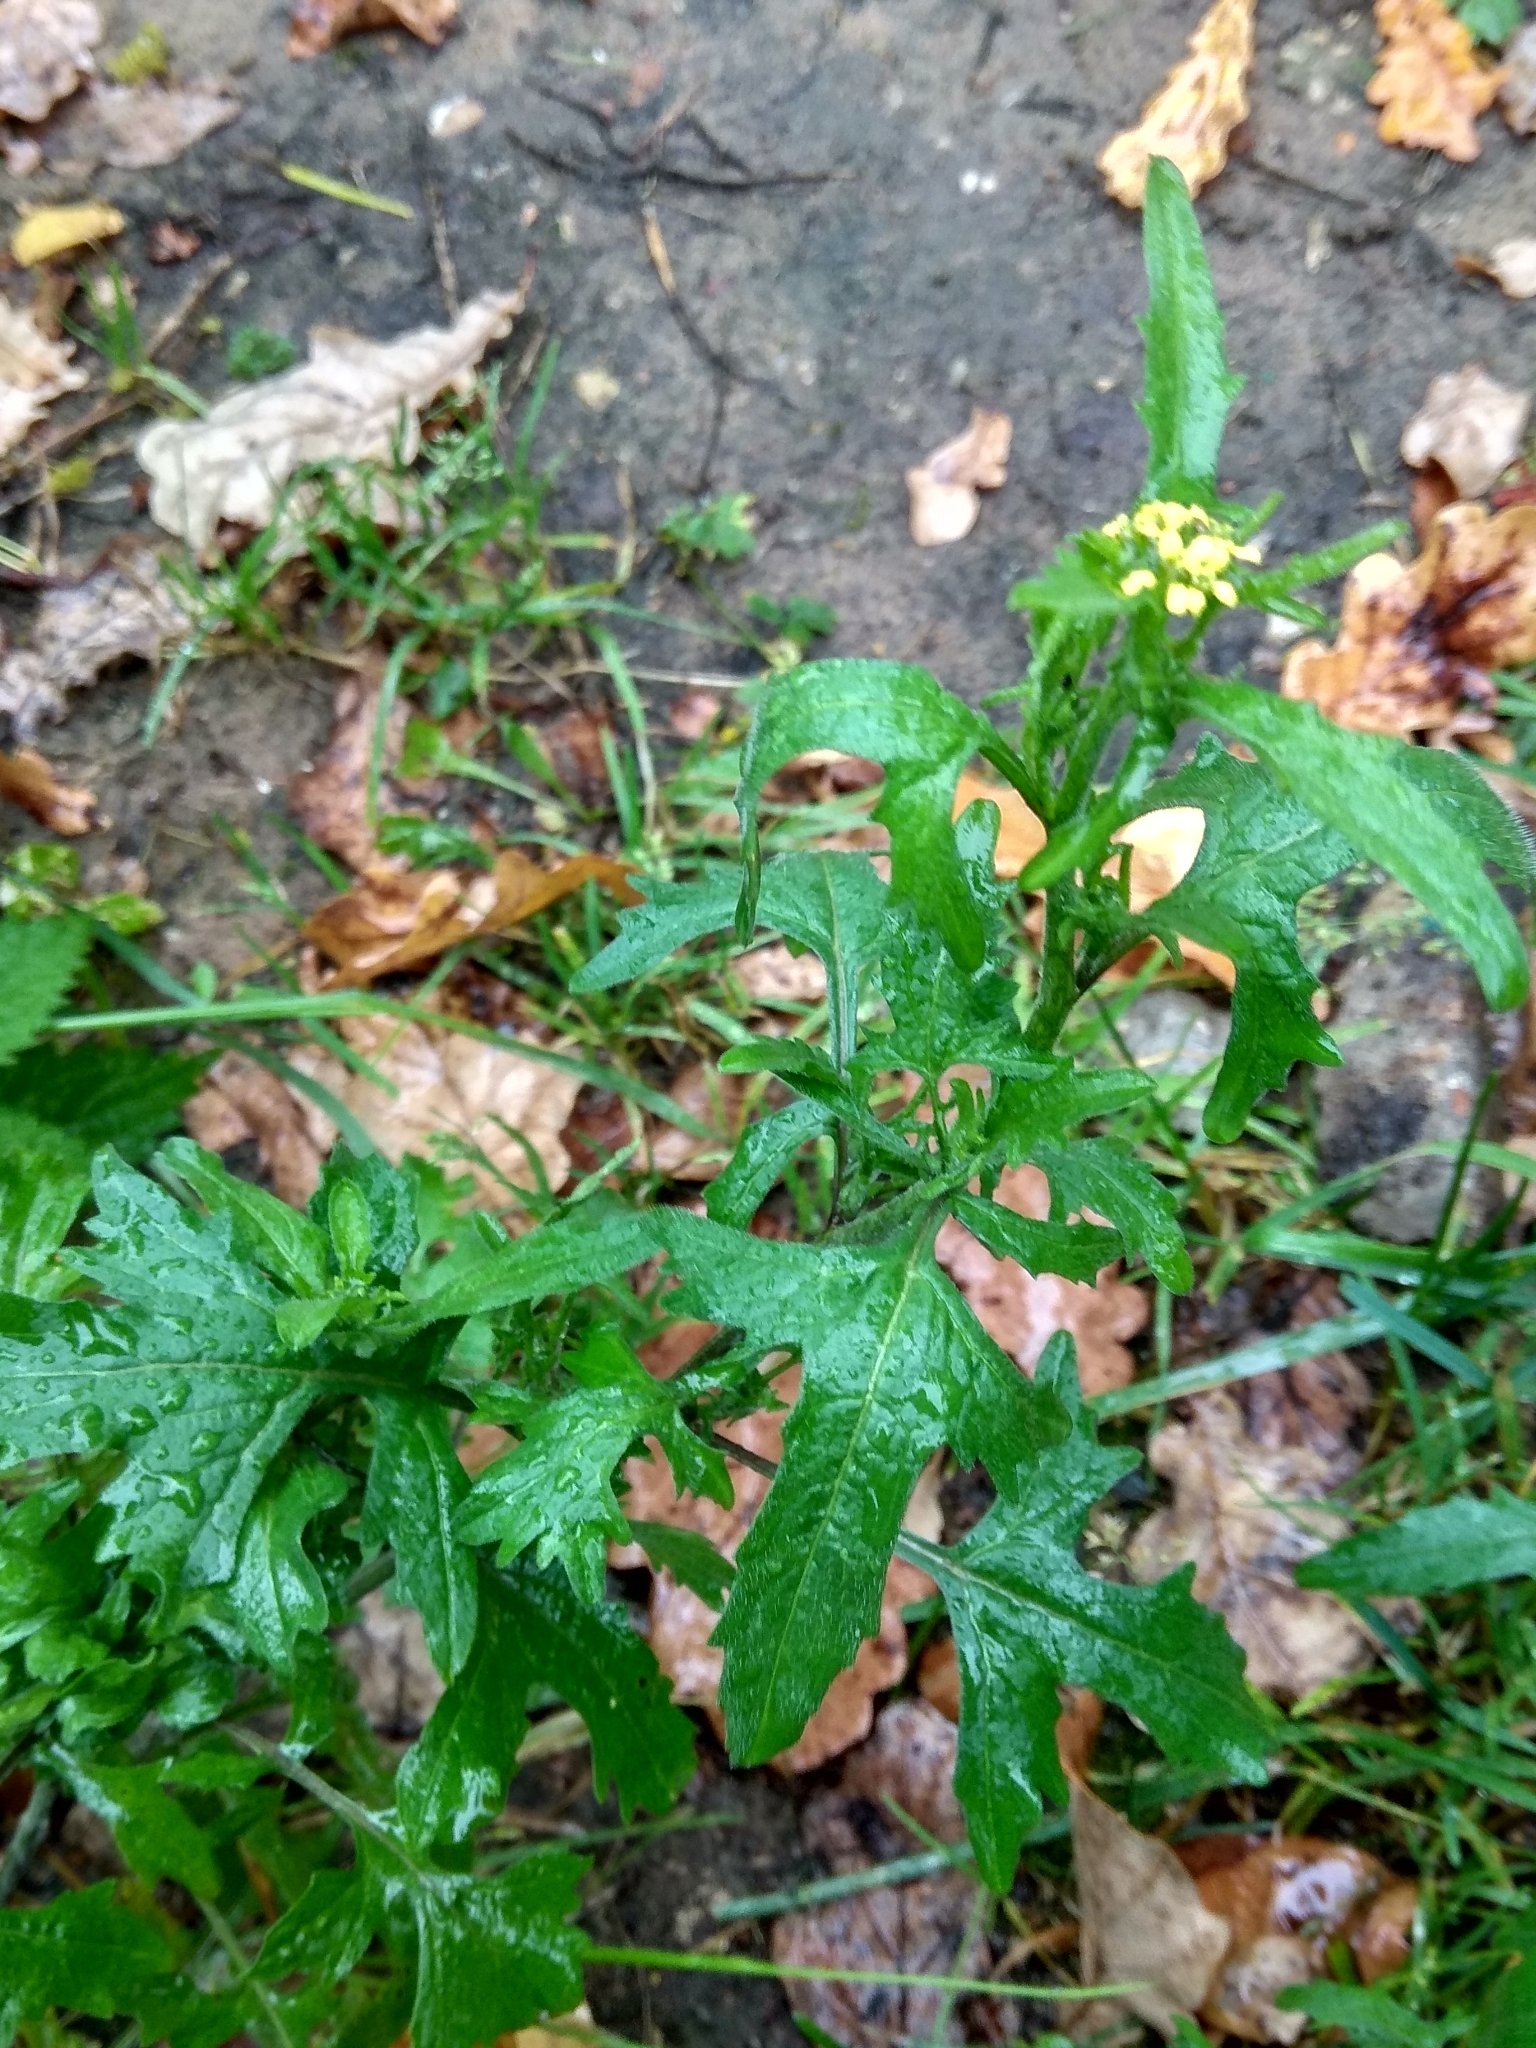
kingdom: Plantae
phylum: Tracheophyta
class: Magnoliopsida
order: Brassicales
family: Brassicaceae
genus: Sisymbrium
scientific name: Sisymbrium officinale
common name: Hedge mustard
